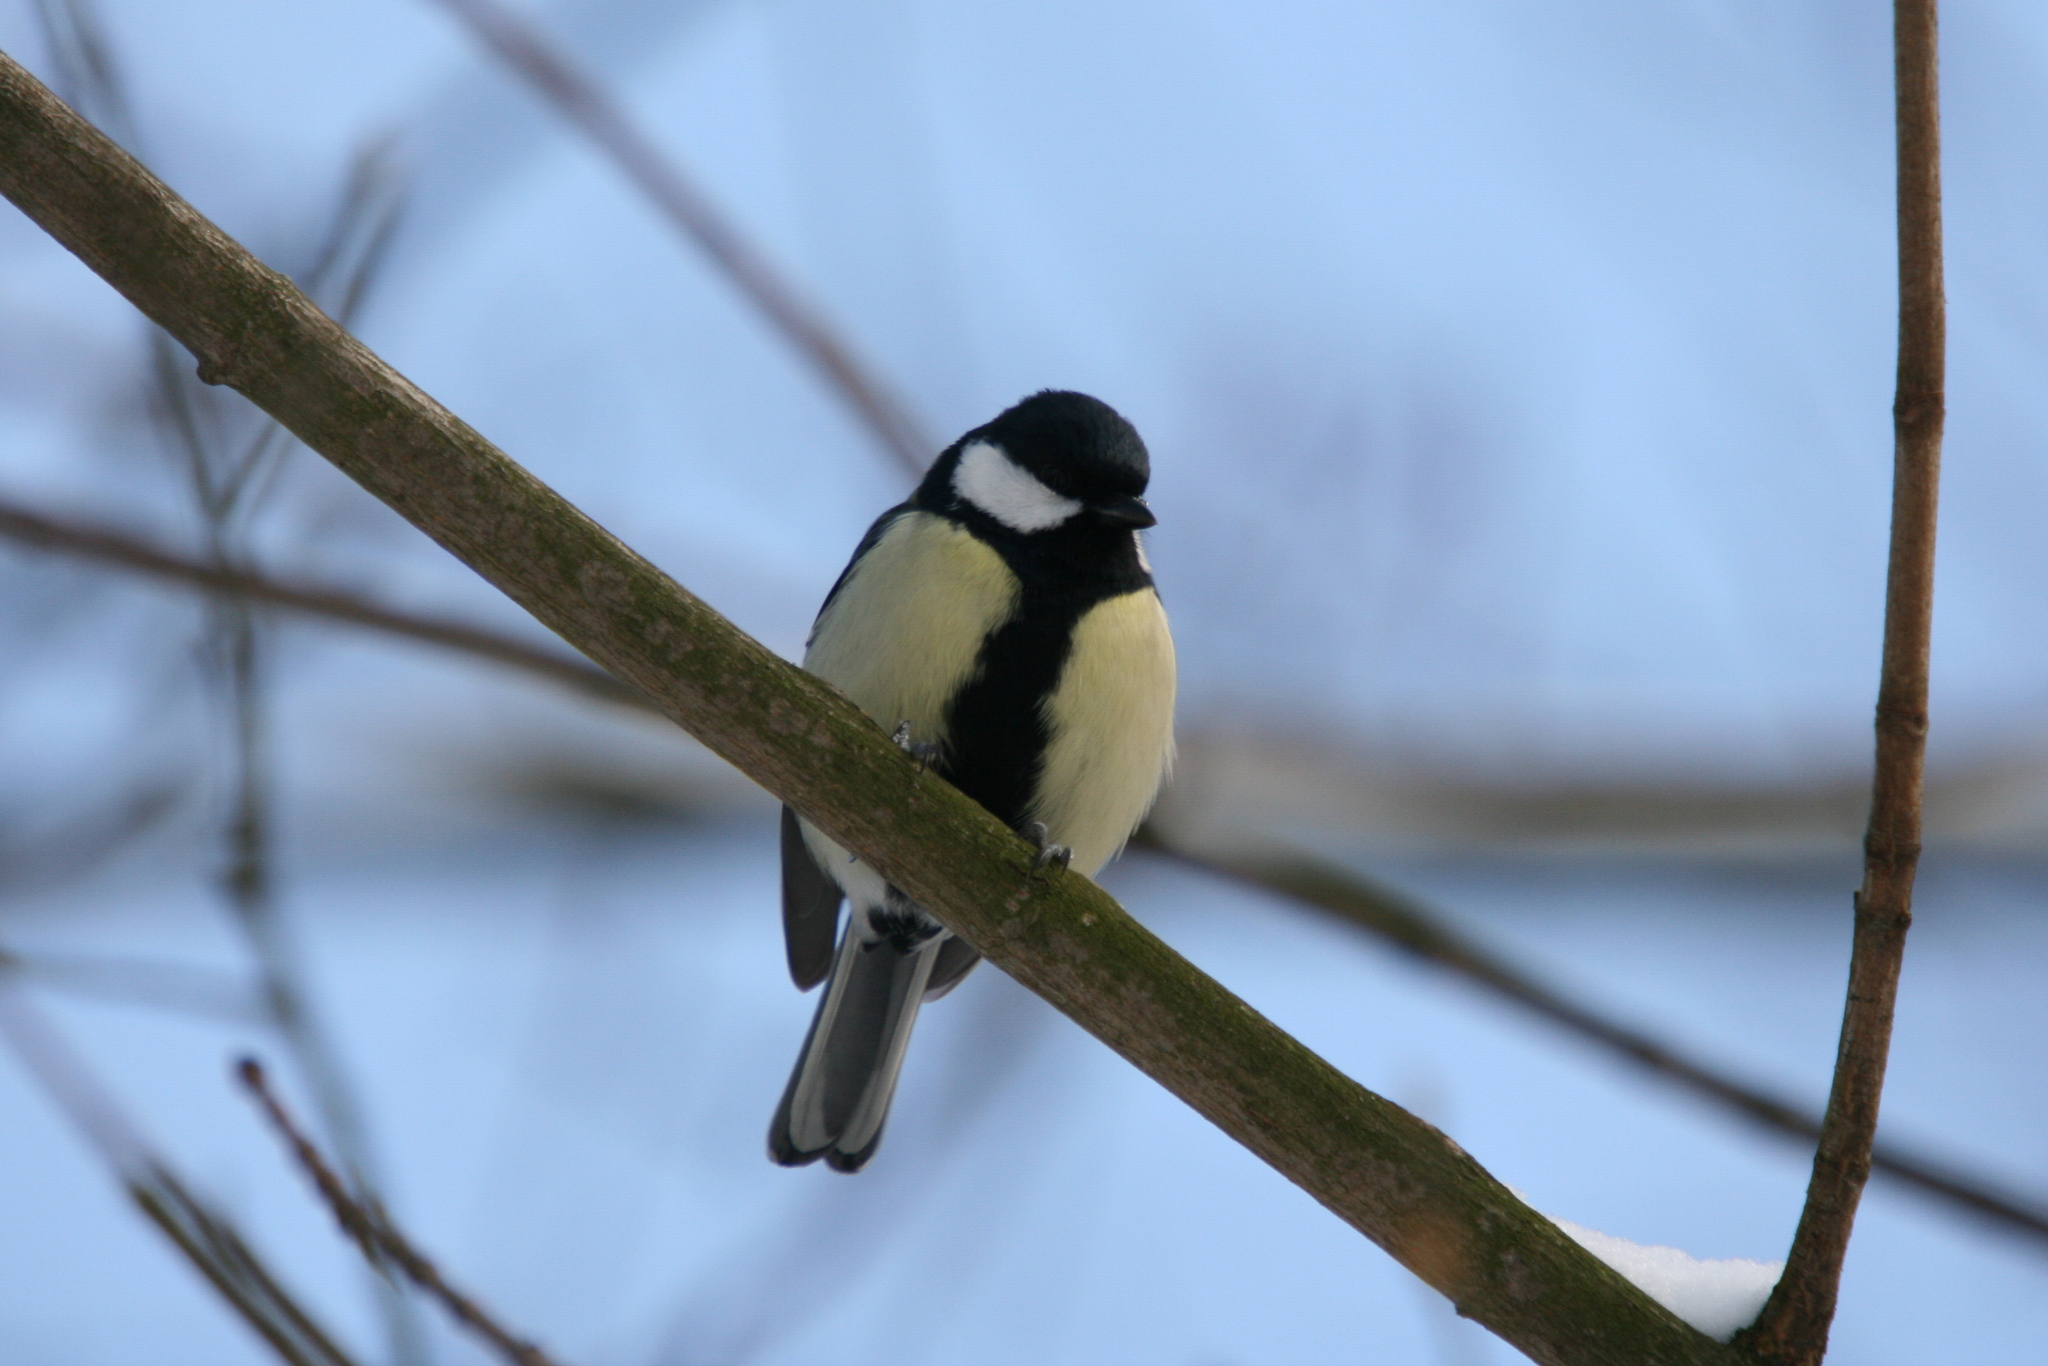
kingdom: Animalia
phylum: Chordata
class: Aves
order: Passeriformes
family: Paridae
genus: Parus
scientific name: Parus major
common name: Great tit
